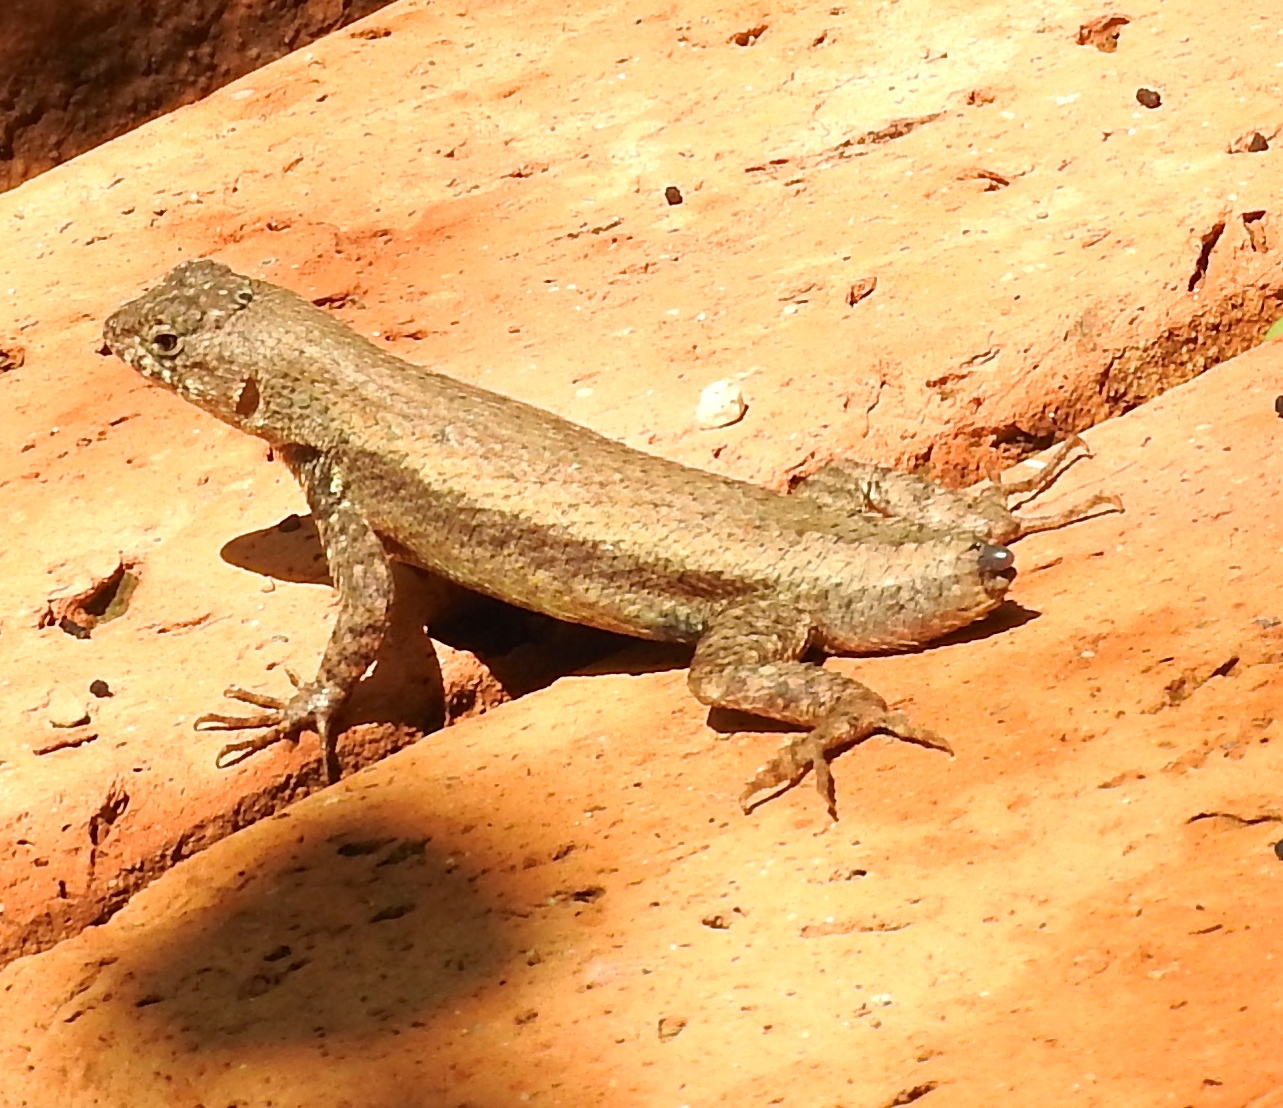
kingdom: Animalia
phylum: Chordata
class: Squamata
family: Phrynosomatidae
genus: Sceloporus
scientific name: Sceloporus nelsoni
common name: Nelson's spiny lizard
